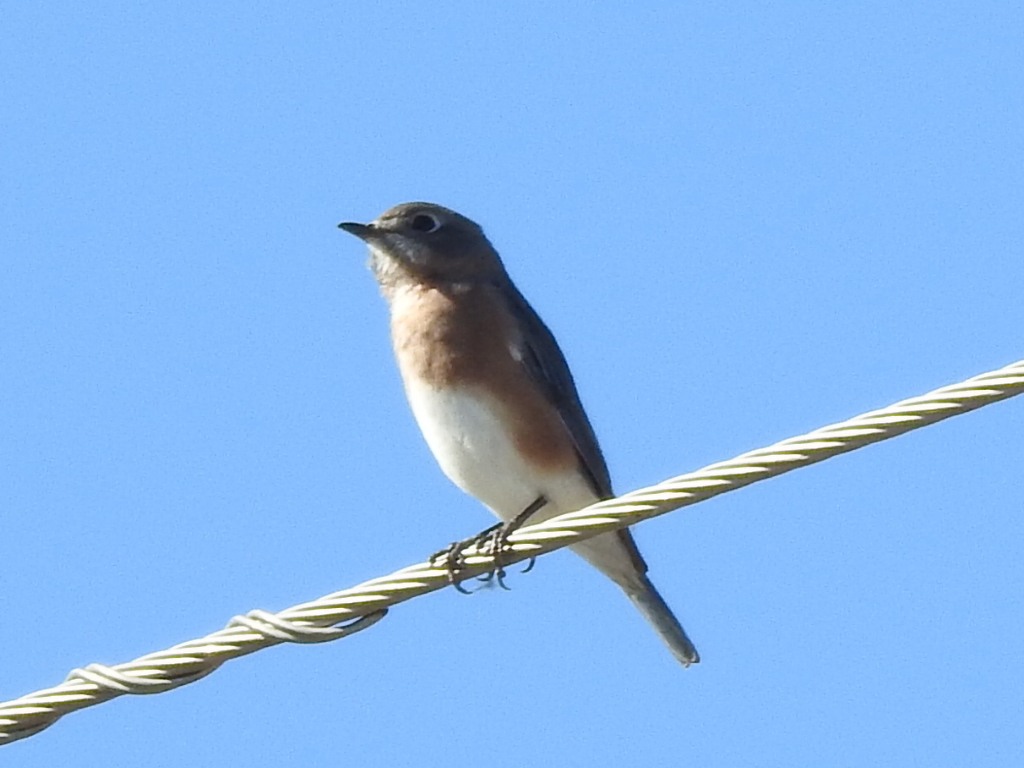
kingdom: Animalia
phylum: Chordata
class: Aves
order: Passeriformes
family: Turdidae
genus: Sialia
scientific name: Sialia sialis
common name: Eastern bluebird
